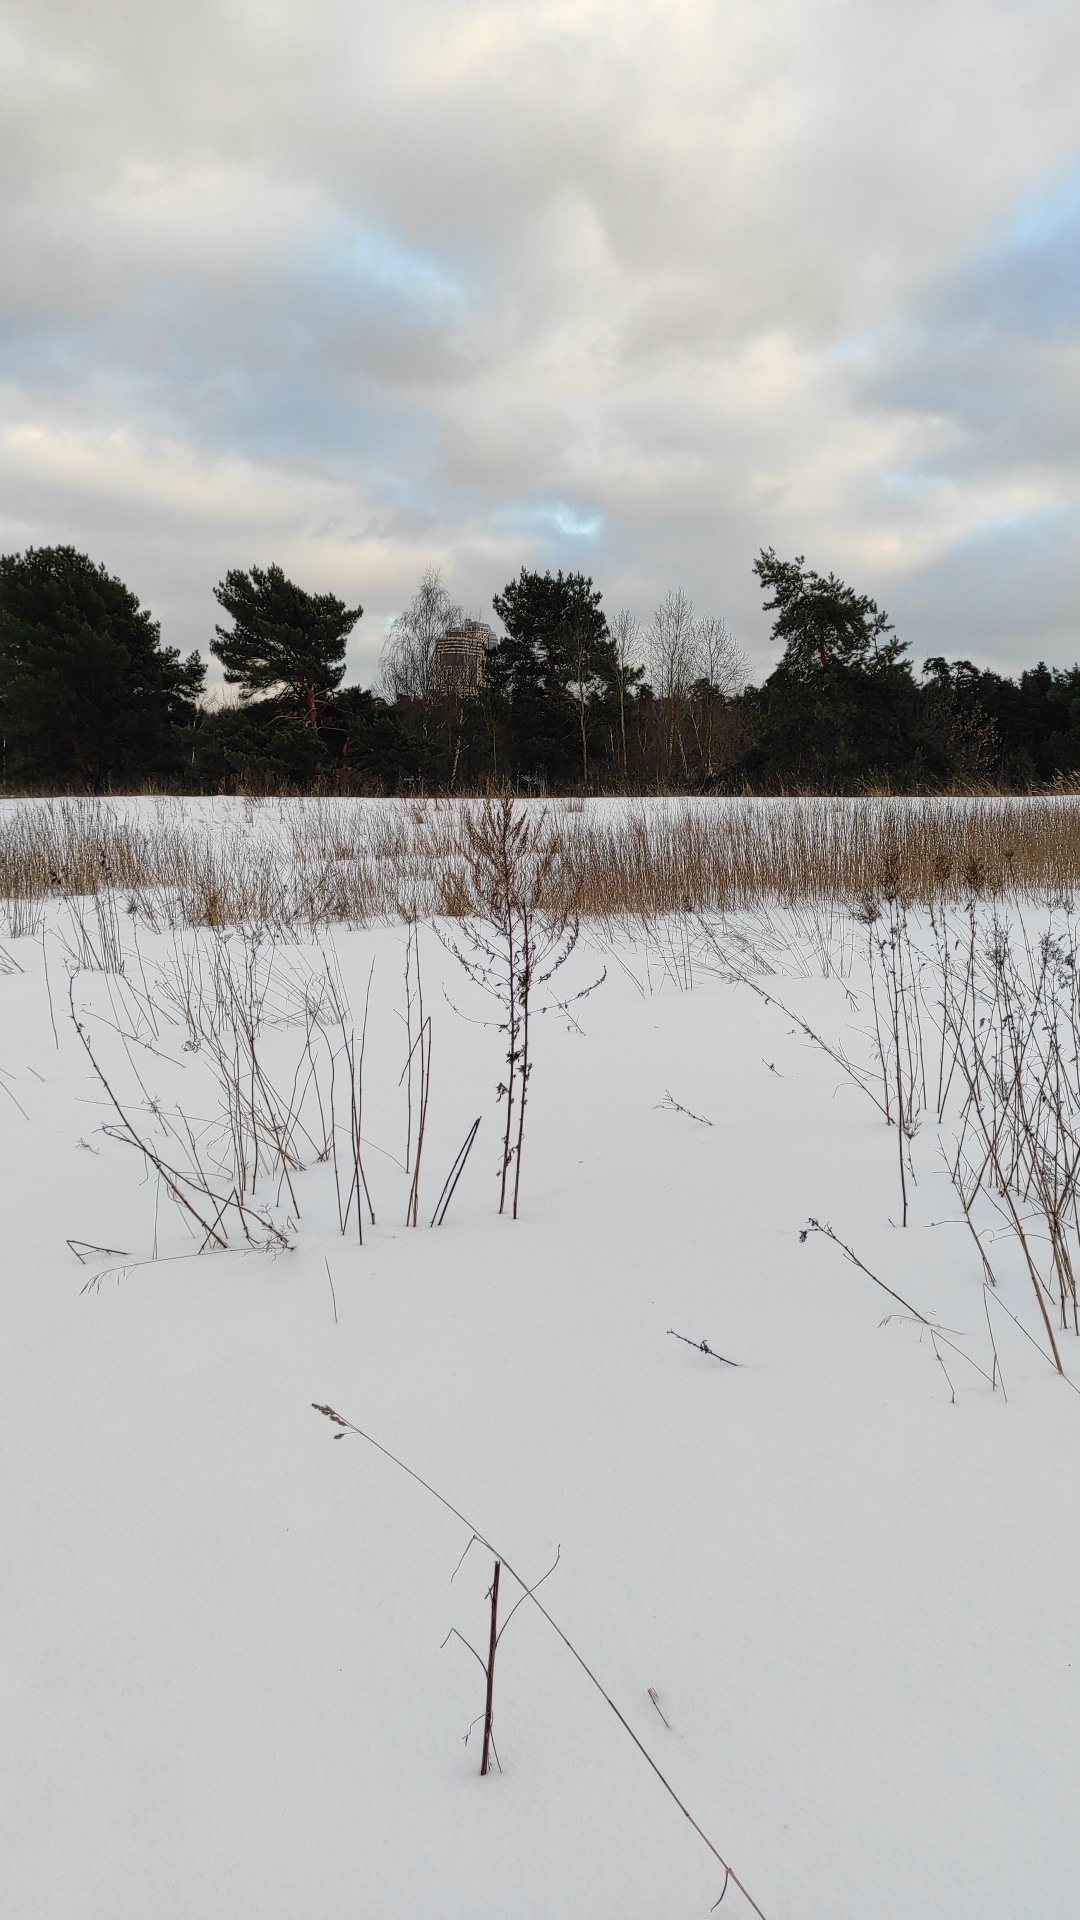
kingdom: Animalia
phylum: Chordata
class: Aves
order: Piciformes
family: Picidae
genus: Dryocopus
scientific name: Dryocopus martius
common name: Black woodpecker
